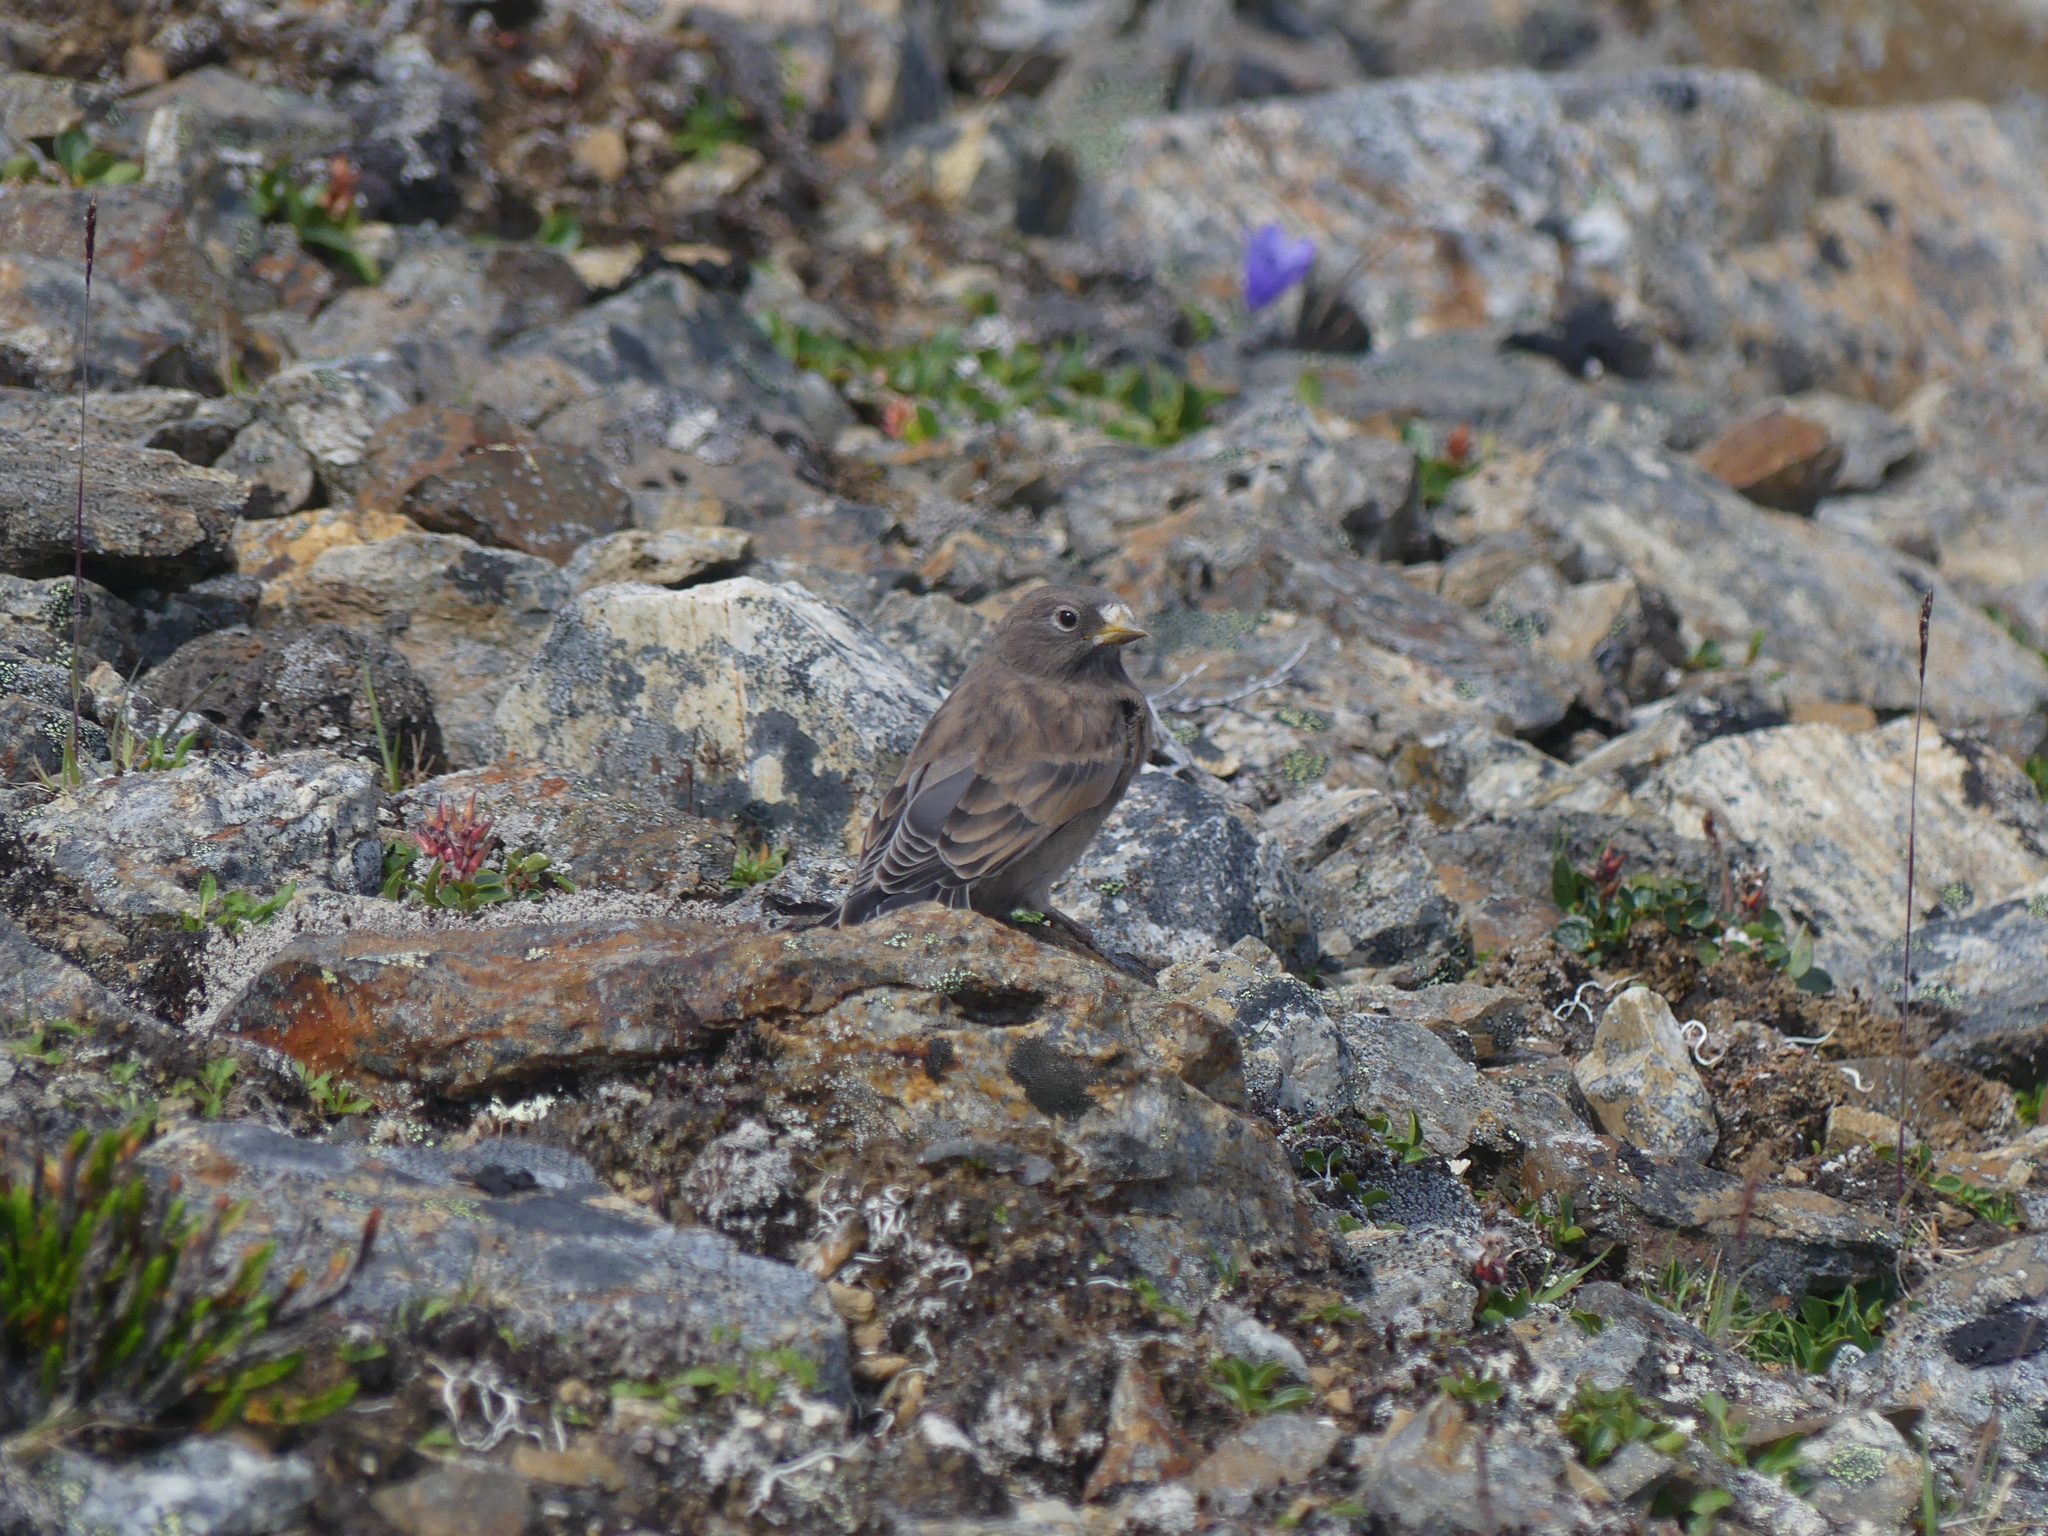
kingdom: Animalia
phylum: Chordata
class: Aves
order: Passeriformes
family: Fringillidae
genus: Leucosticte
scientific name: Leucosticte tephrocotis
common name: Gray-crowned rosy-finch
